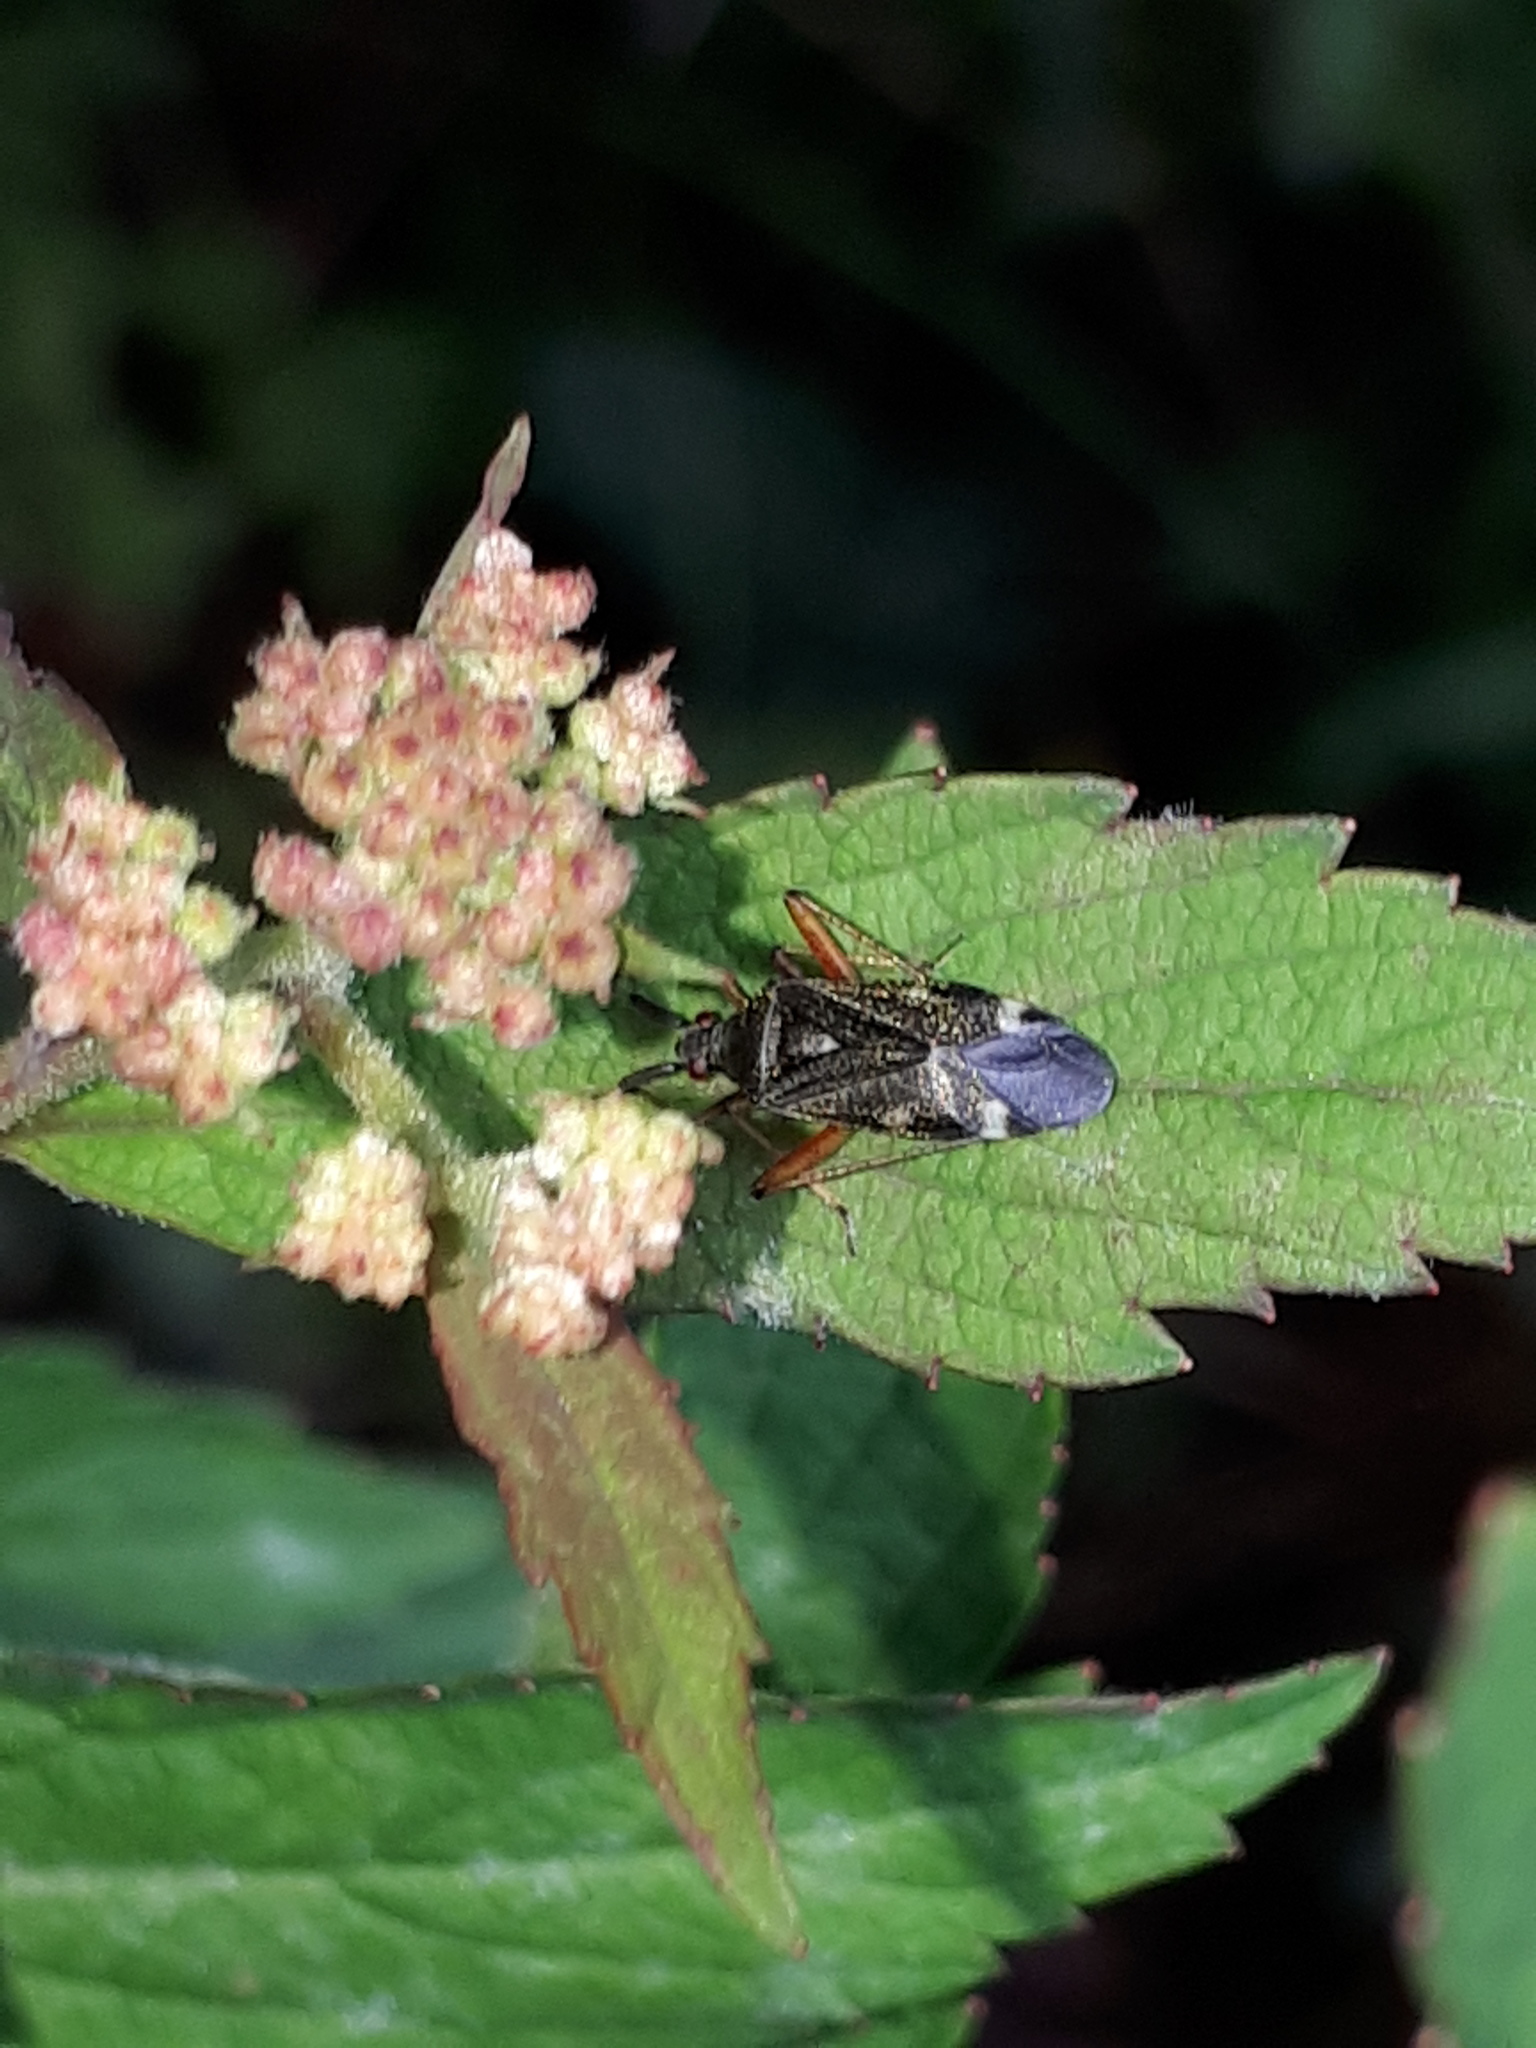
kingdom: Animalia
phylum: Arthropoda
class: Insecta
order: Hemiptera
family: Miridae
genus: Closterotomus
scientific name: Closterotomus biclavatus
